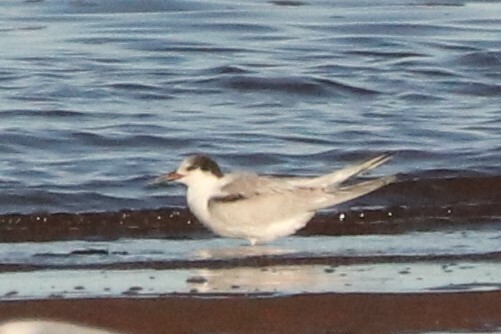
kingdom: Animalia
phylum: Chordata
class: Aves
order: Charadriiformes
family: Laridae
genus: Sterna
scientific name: Sterna hirundo
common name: Common tern
